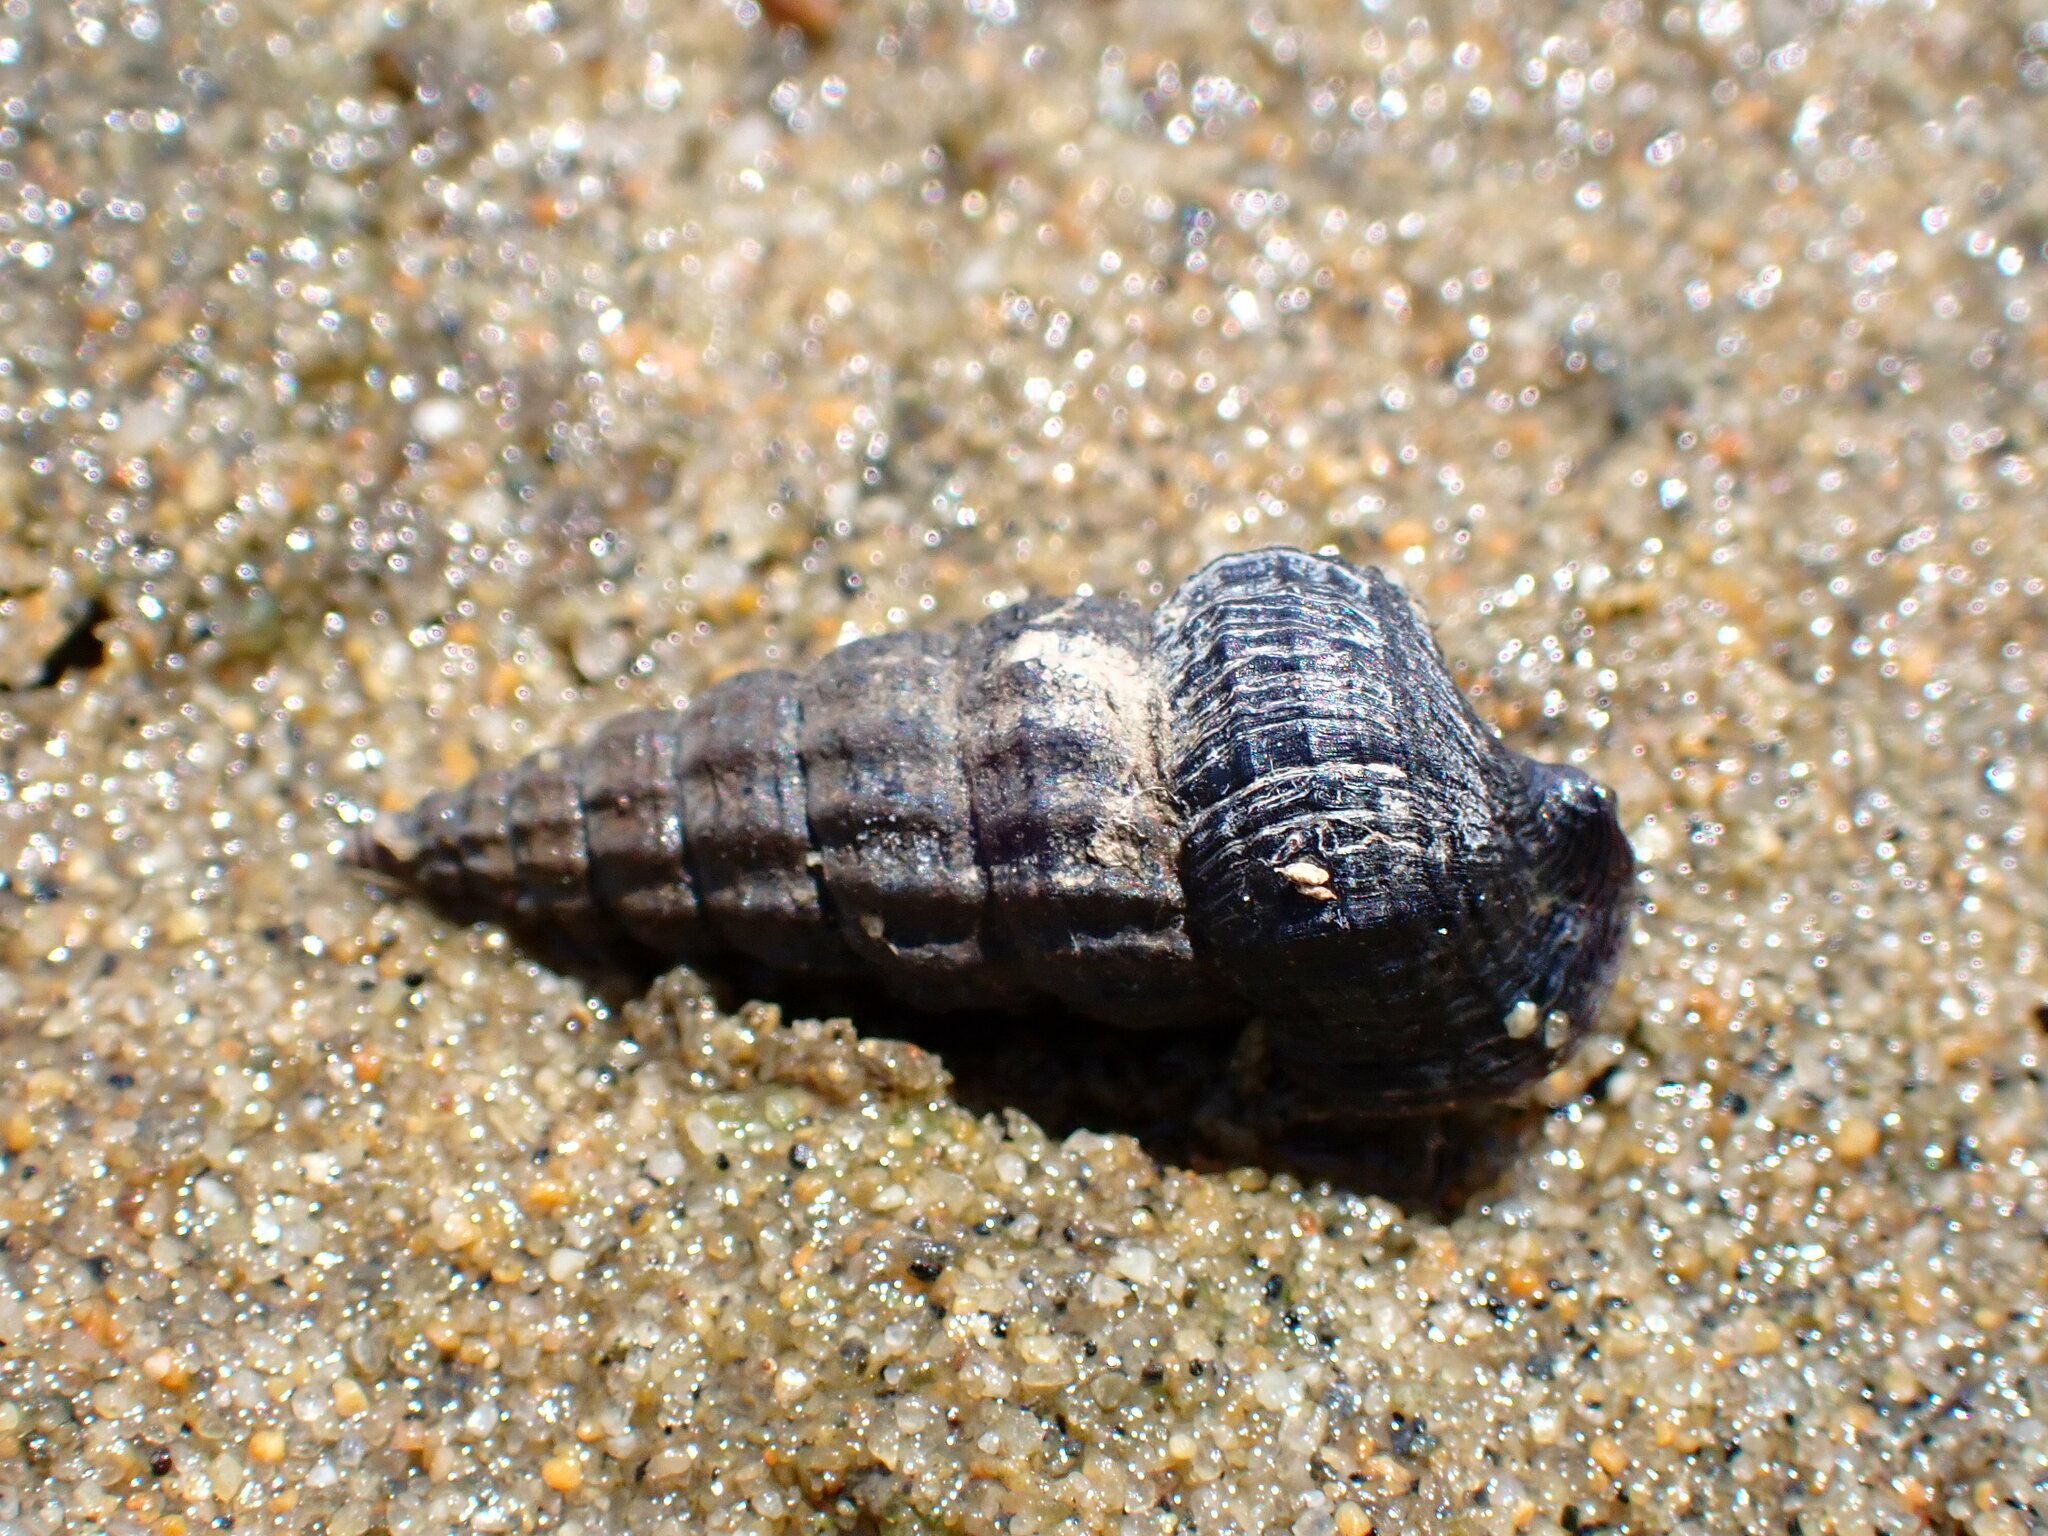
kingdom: Animalia
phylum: Mollusca
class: Gastropoda
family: Potamididae
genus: Cerithideopsis
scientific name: Cerithideopsis californica
